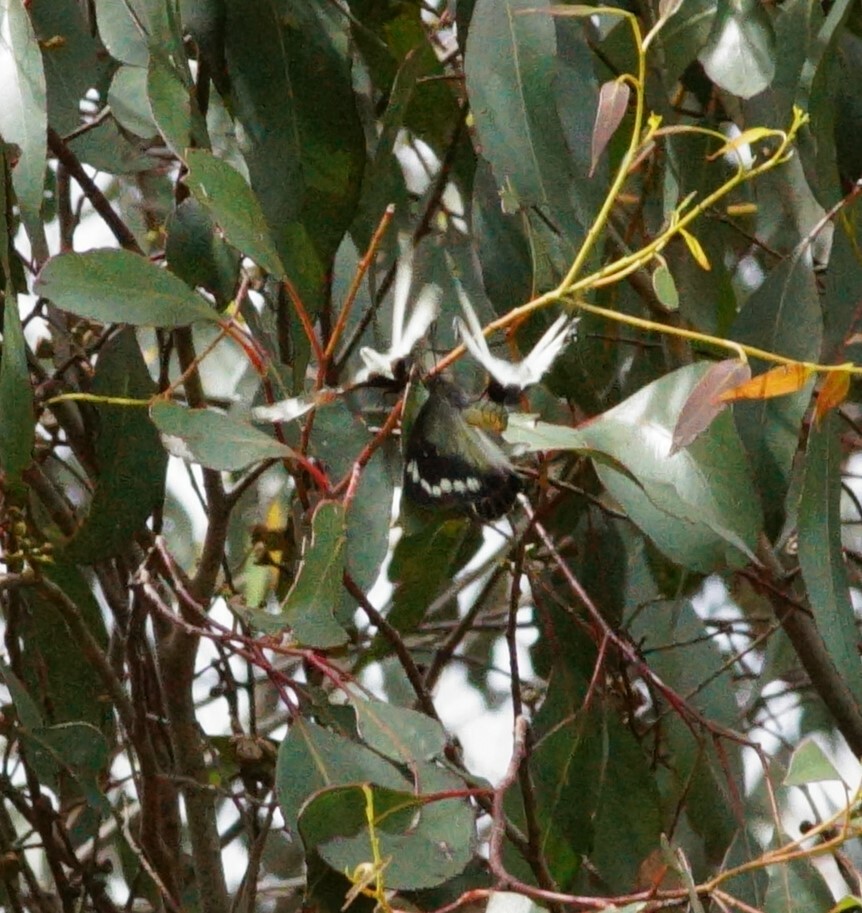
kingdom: Animalia
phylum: Arthropoda
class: Insecta
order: Lepidoptera
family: Pieridae
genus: Delias
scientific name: Delias harpalyce
